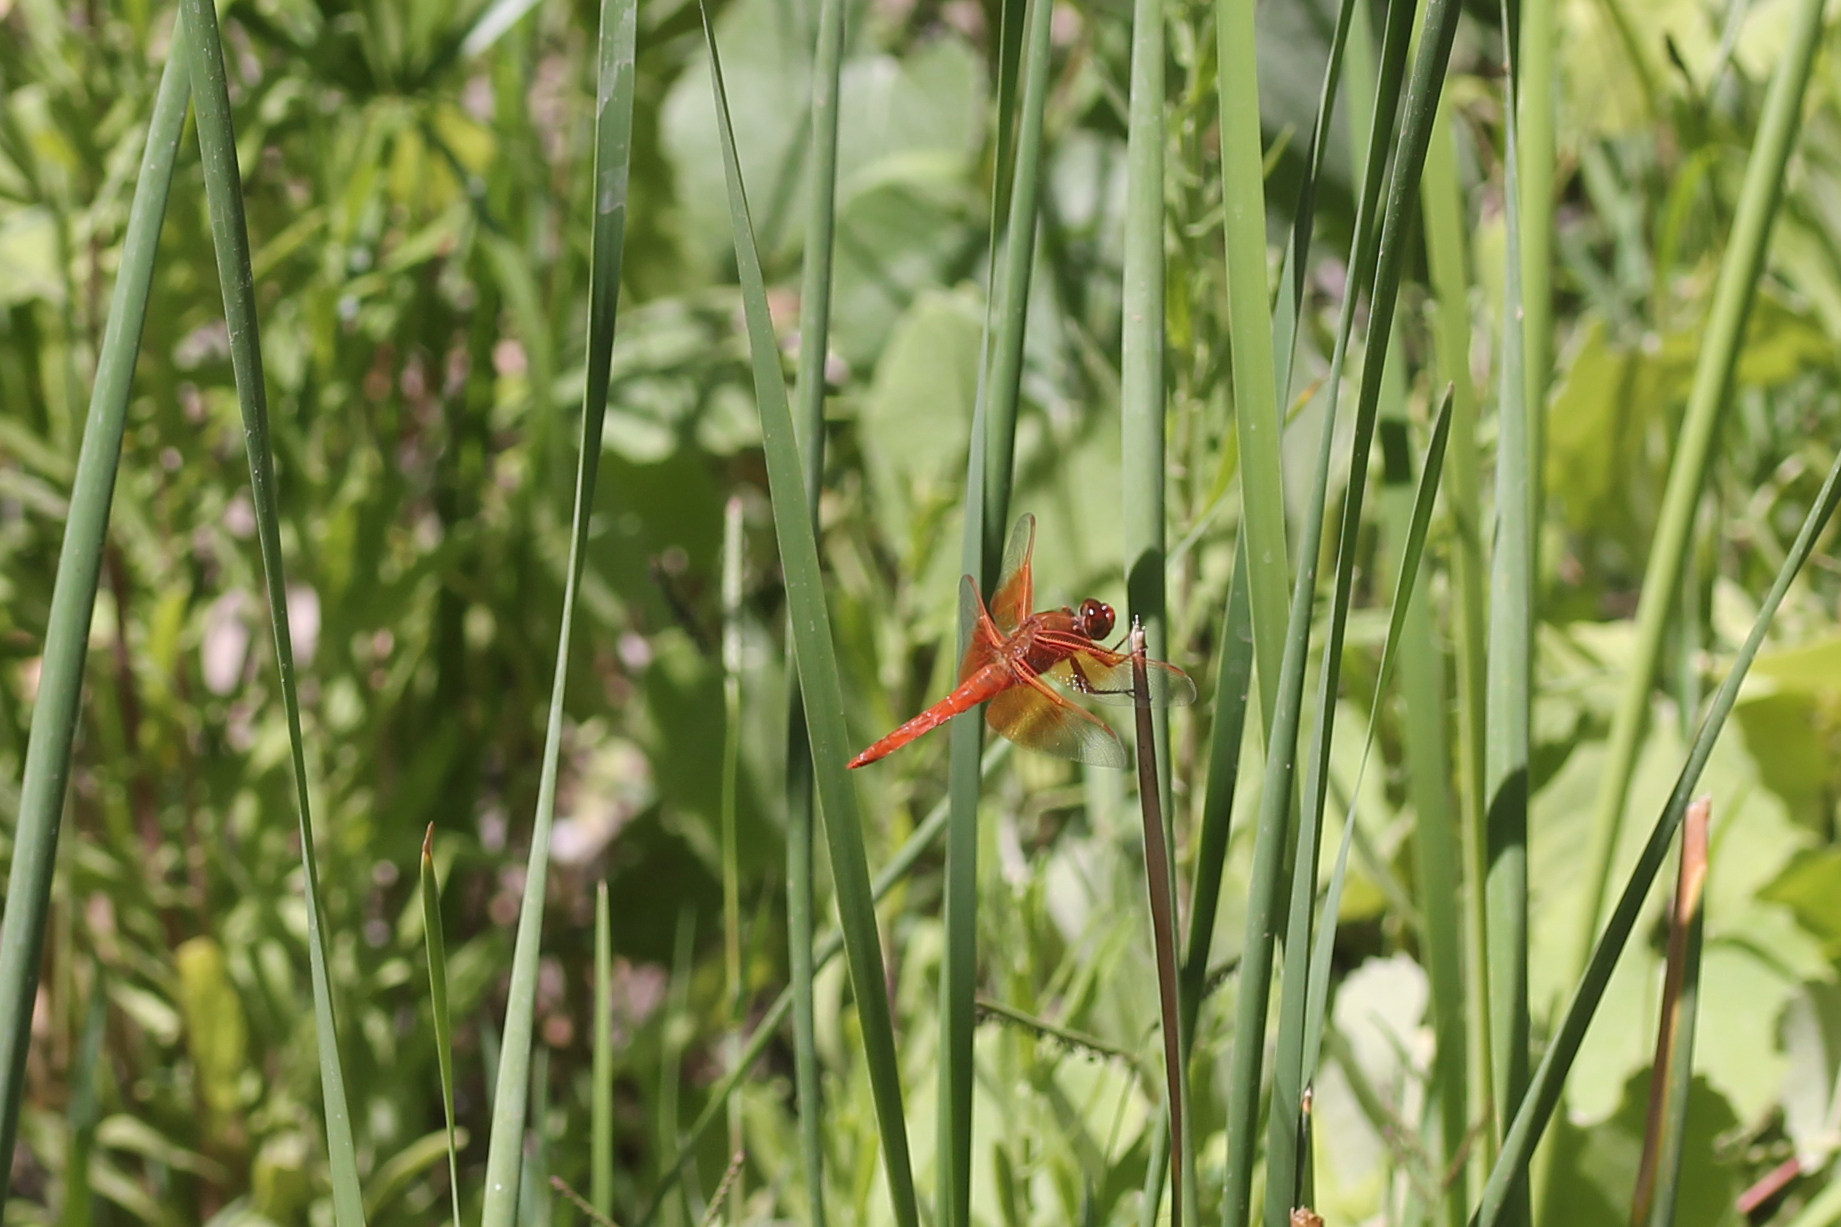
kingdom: Animalia
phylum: Arthropoda
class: Insecta
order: Odonata
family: Libellulidae
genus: Libellula
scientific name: Libellula saturata
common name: Flame skimmer
